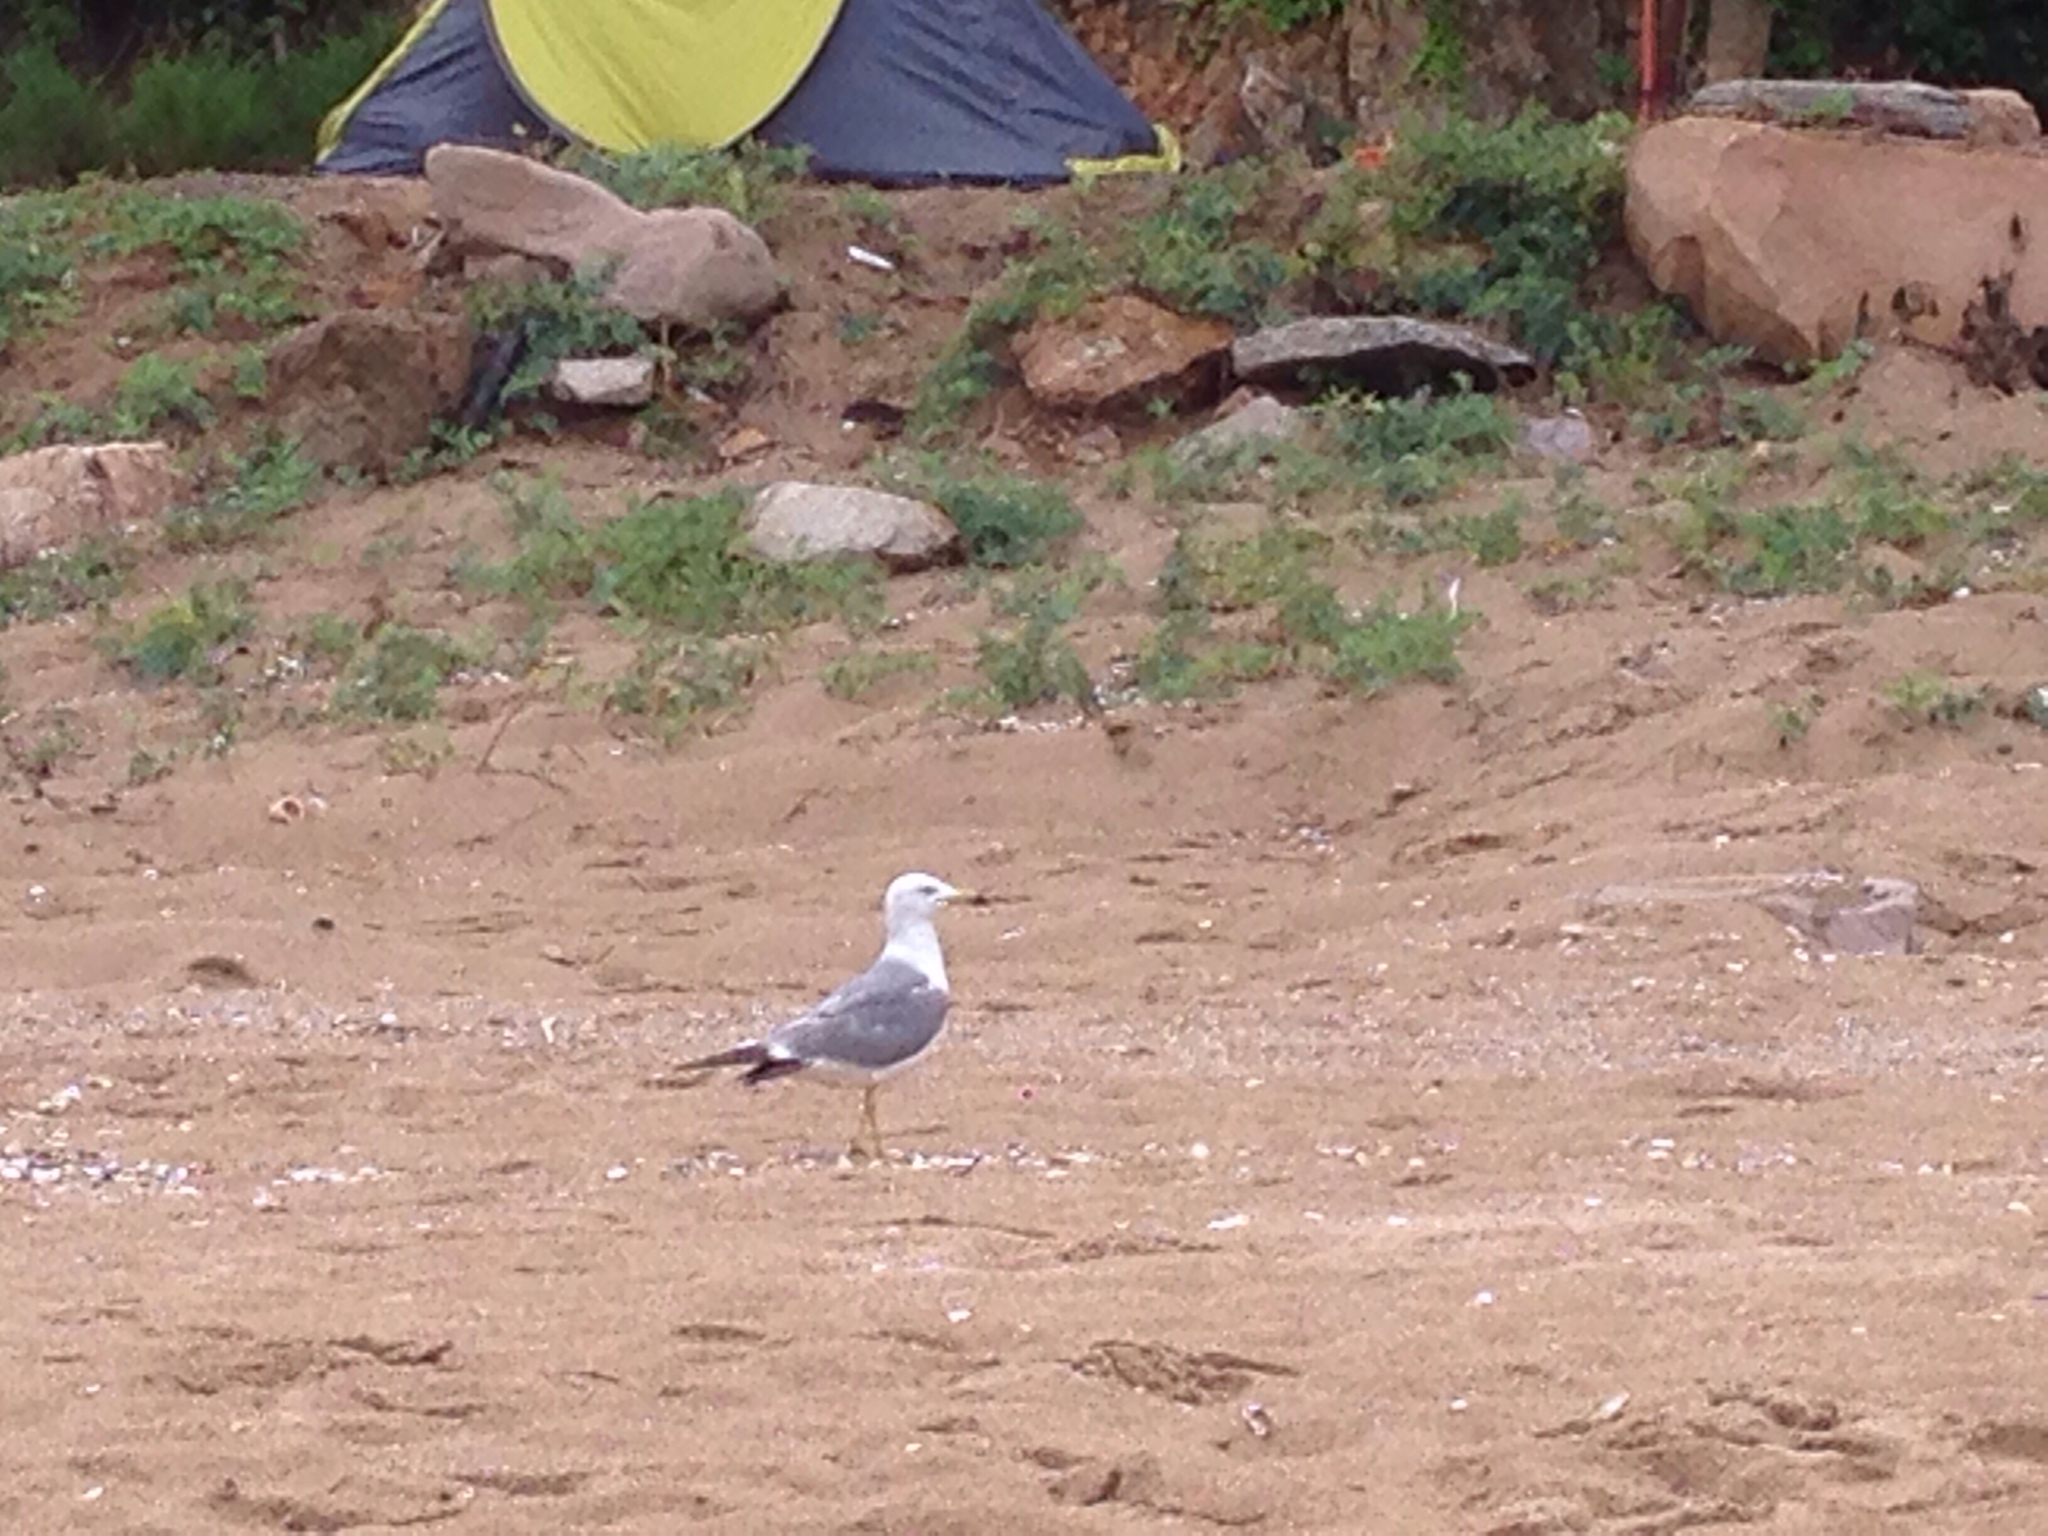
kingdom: Animalia
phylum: Chordata
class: Aves
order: Charadriiformes
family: Laridae
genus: Larus
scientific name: Larus crassirostris
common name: Black-tailed gull
